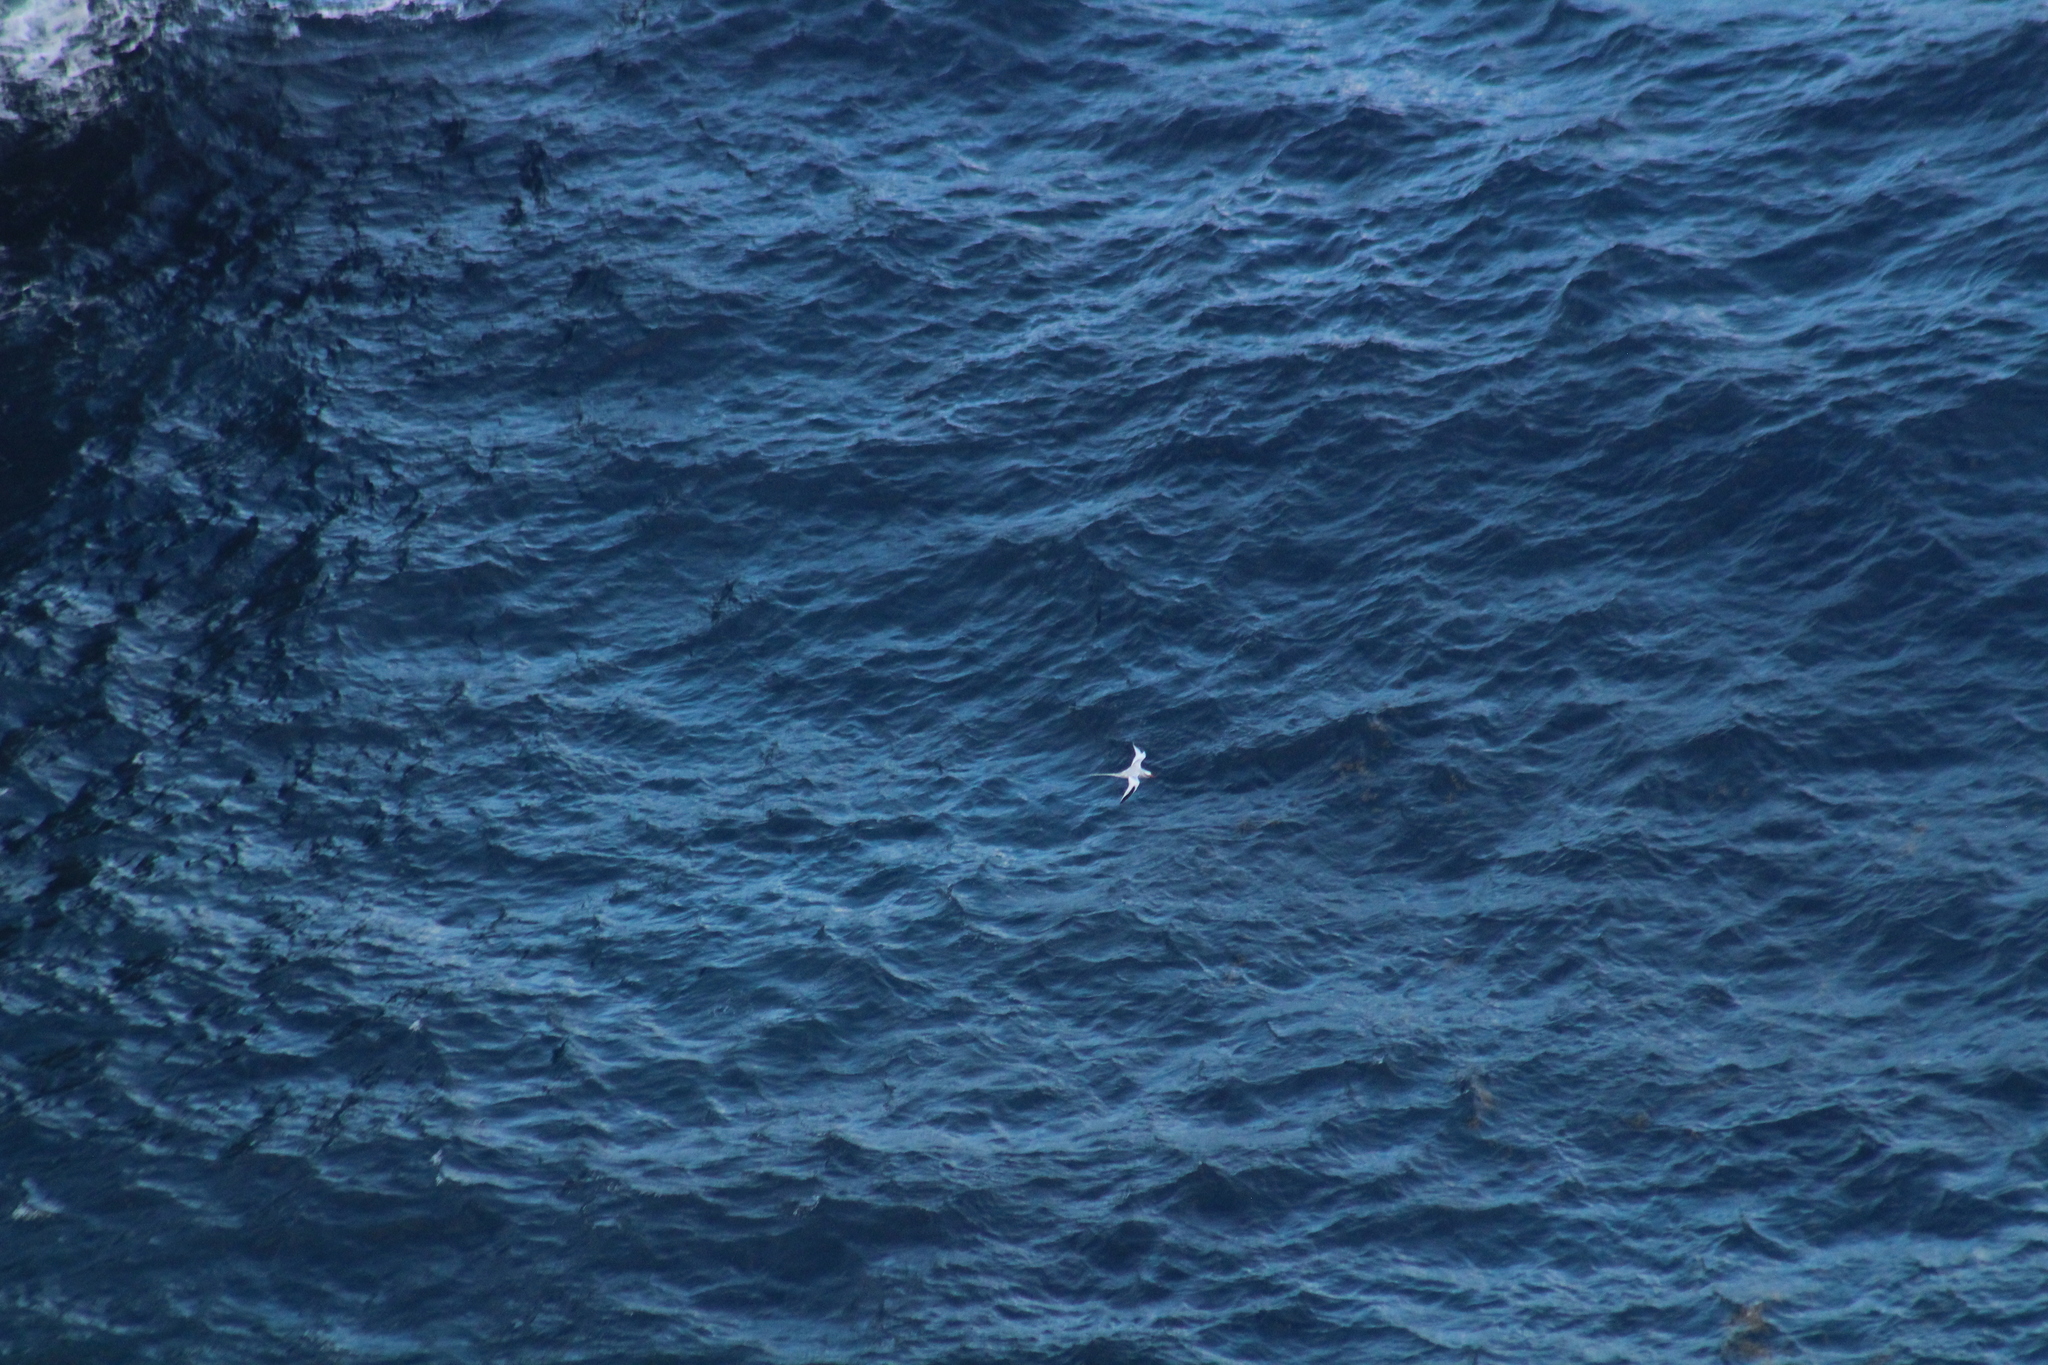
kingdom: Animalia
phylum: Chordata
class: Aves
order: Phaethontiformes
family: Phaethontidae
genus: Phaethon
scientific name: Phaethon aethereus
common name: Red-billed tropicbird
